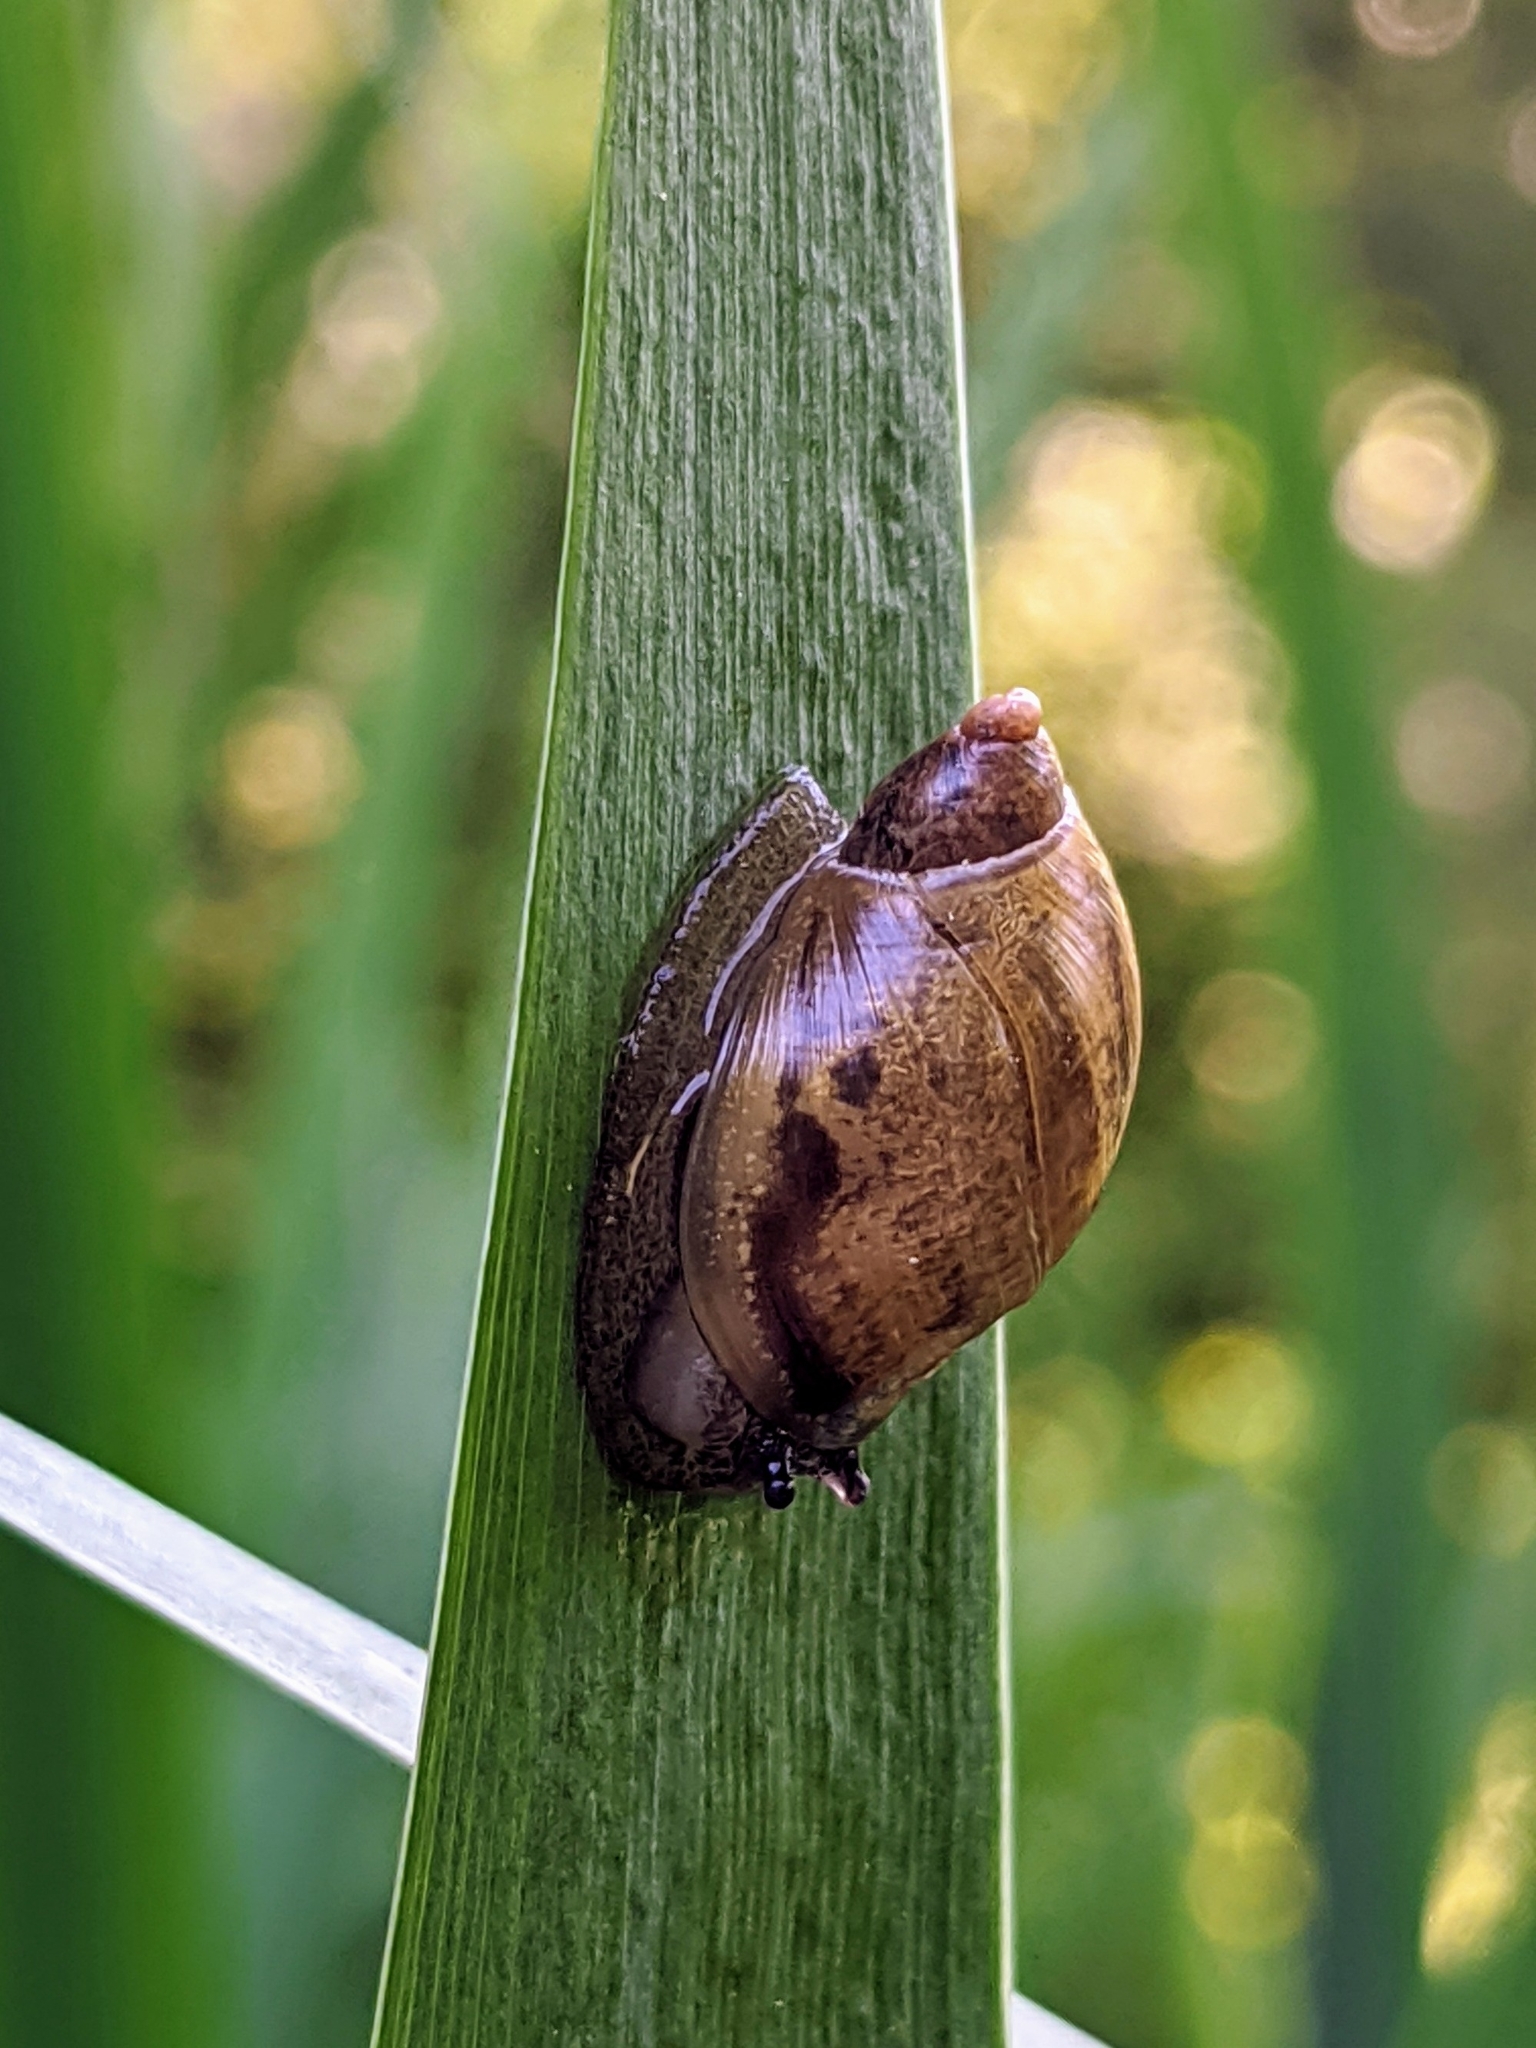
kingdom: Animalia
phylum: Mollusca
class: Gastropoda
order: Stylommatophora
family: Succineidae
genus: Succinea
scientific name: Succinea putris
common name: European ambersnail
